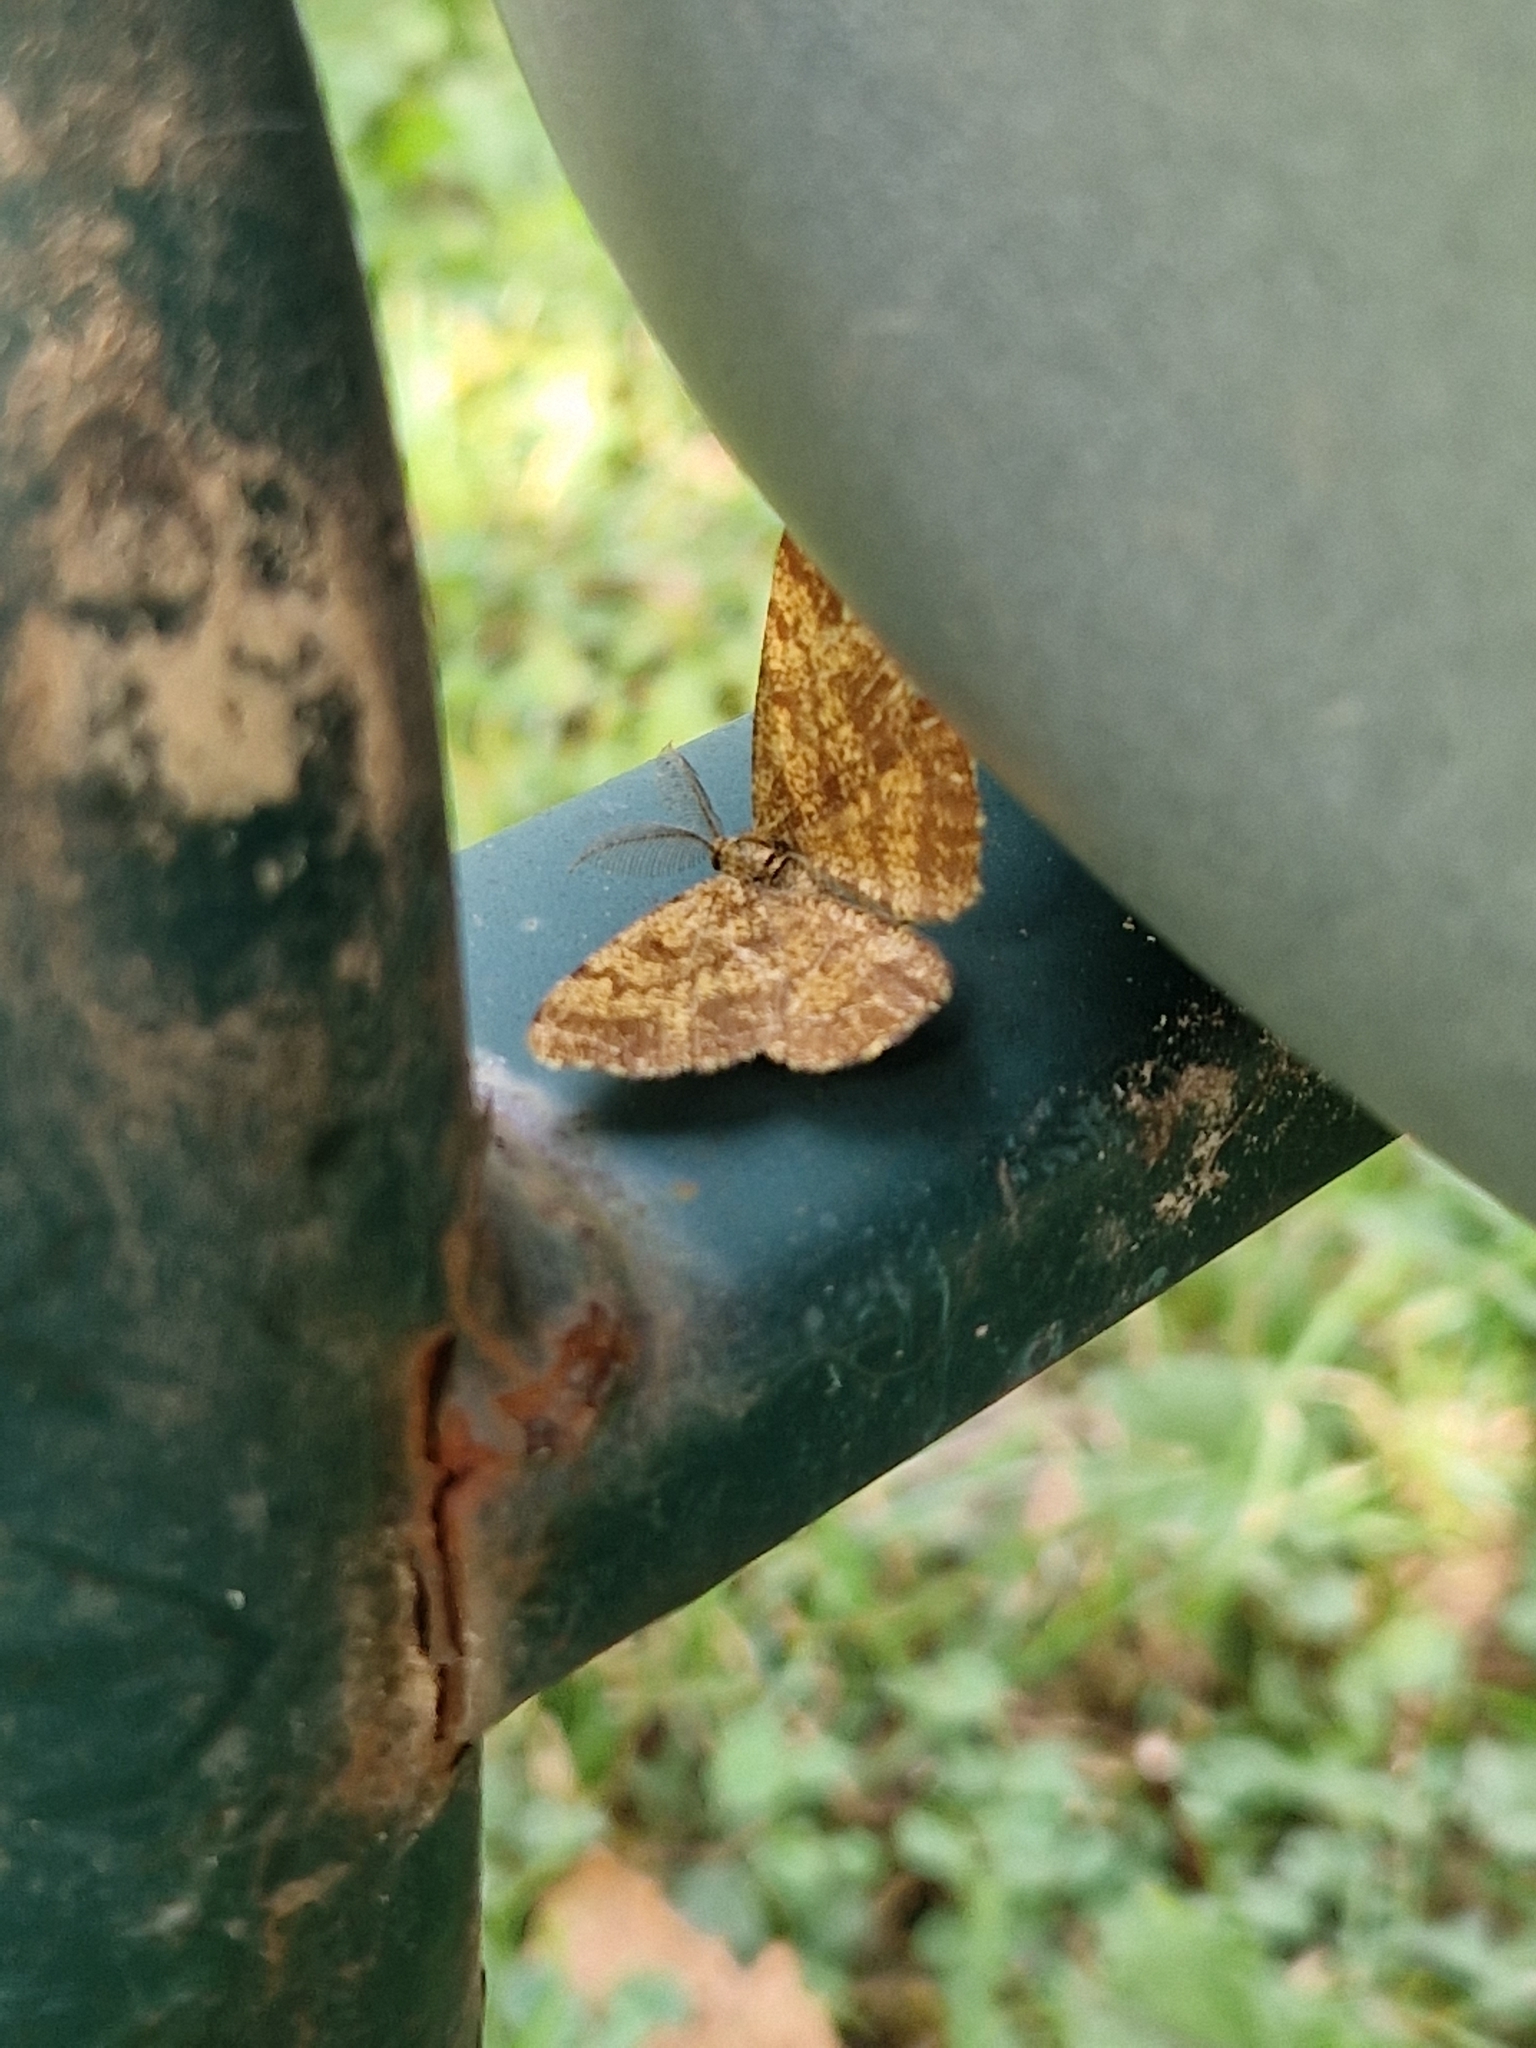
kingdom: Animalia
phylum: Arthropoda
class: Insecta
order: Lepidoptera
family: Geometridae
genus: Ematurga
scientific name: Ematurga atomaria
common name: Common heath
